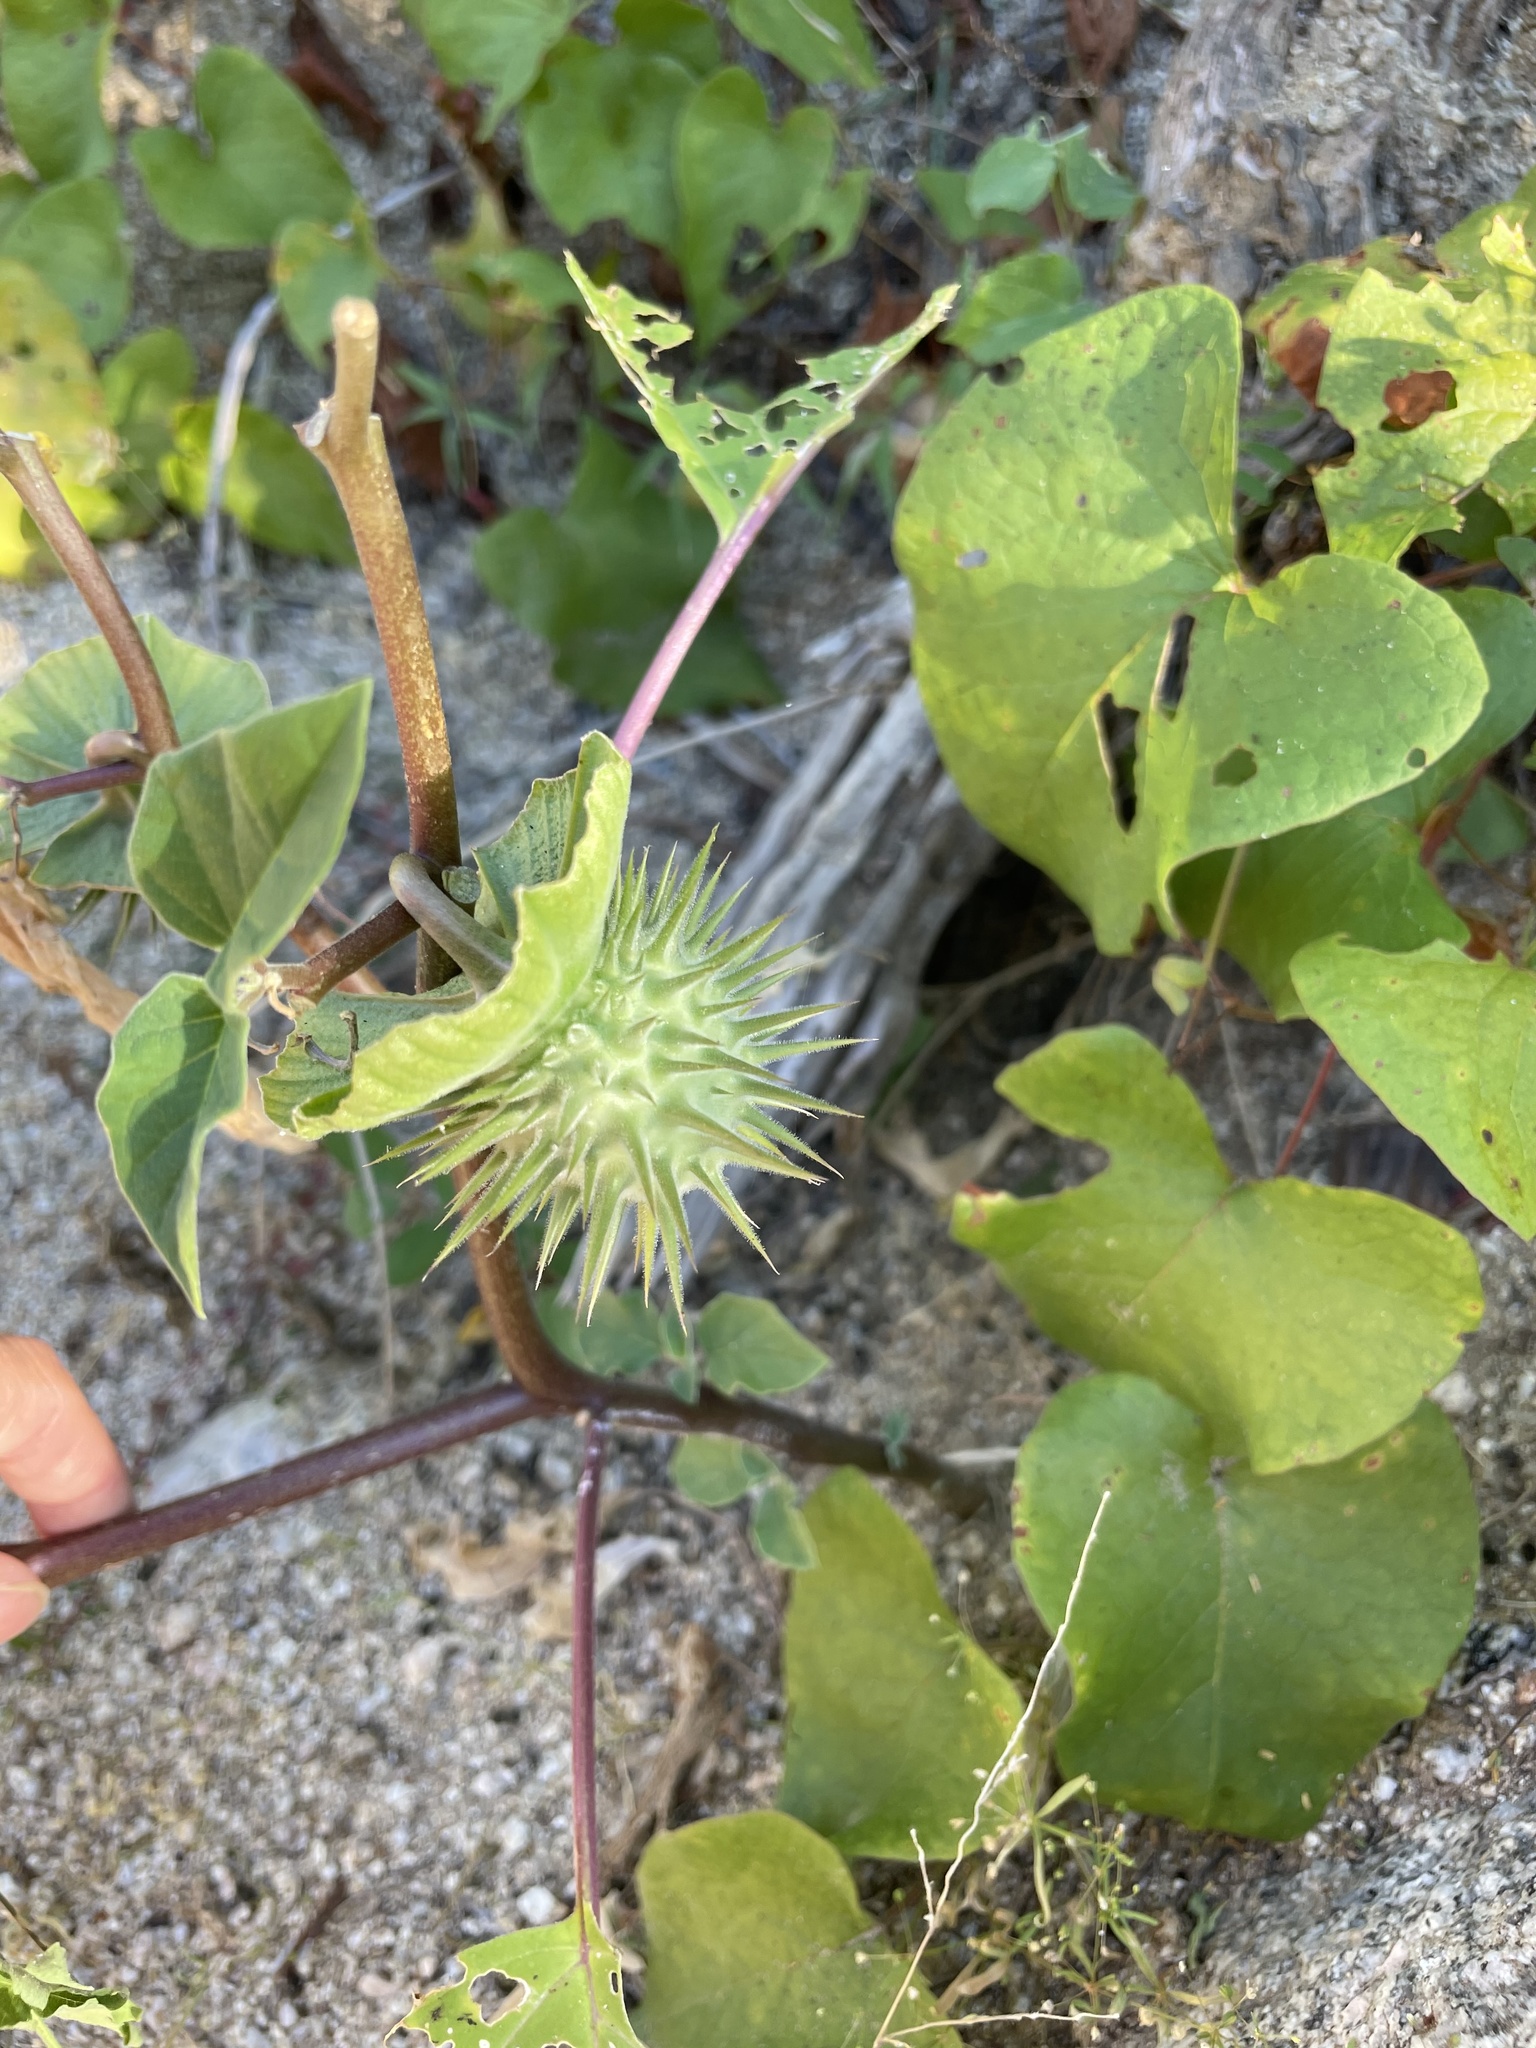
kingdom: Plantae
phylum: Tracheophyta
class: Magnoliopsida
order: Solanales
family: Solanaceae
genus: Datura
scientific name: Datura discolor
